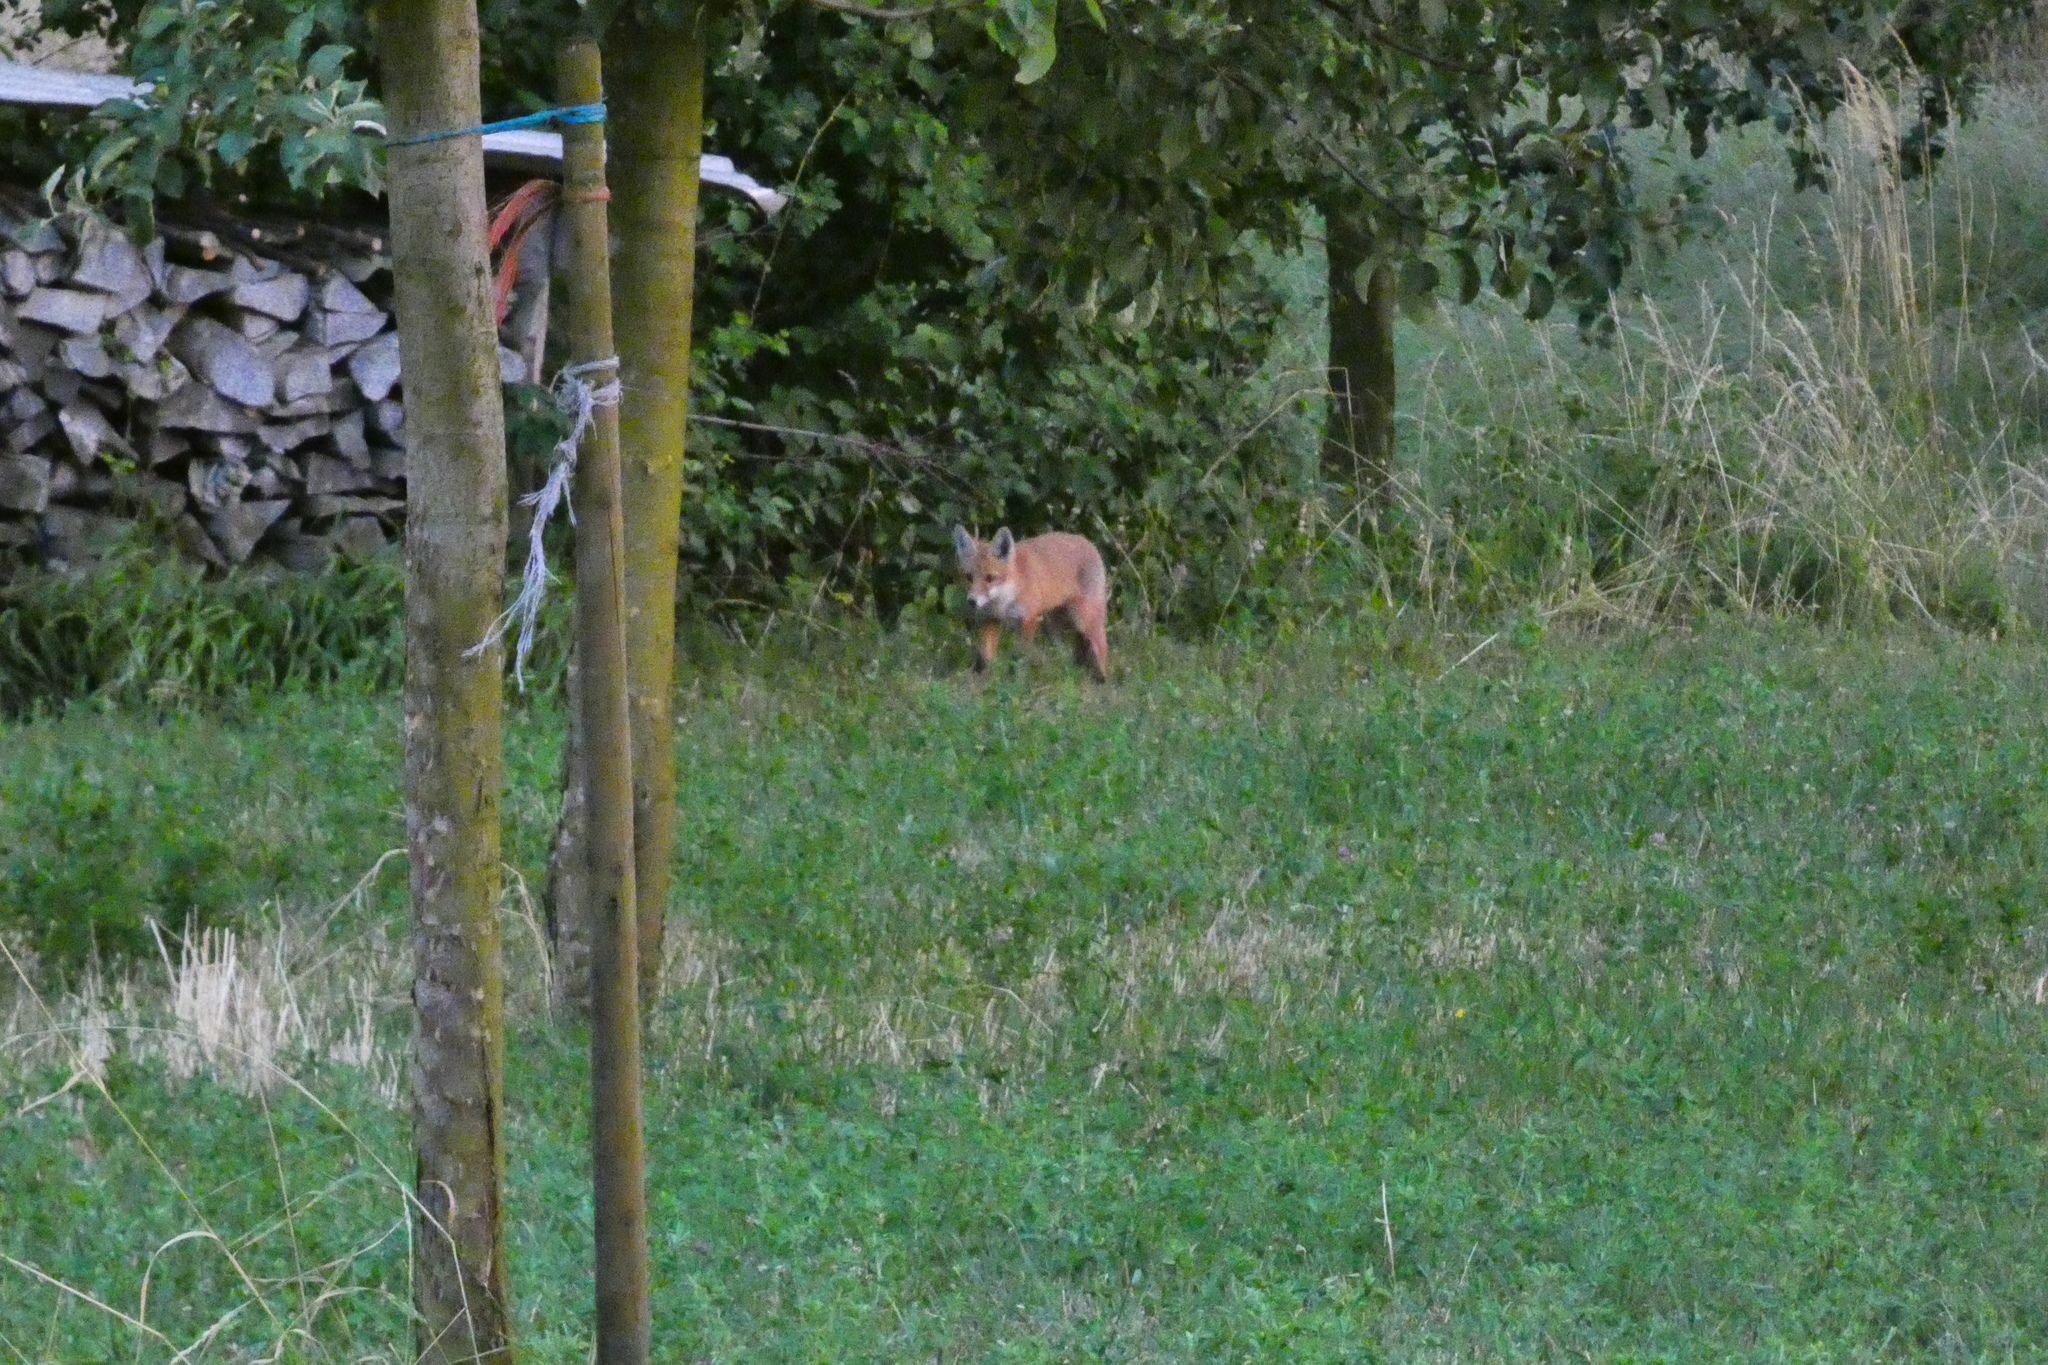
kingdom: Animalia
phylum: Chordata
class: Mammalia
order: Carnivora
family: Canidae
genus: Vulpes
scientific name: Vulpes vulpes
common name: Red fox
